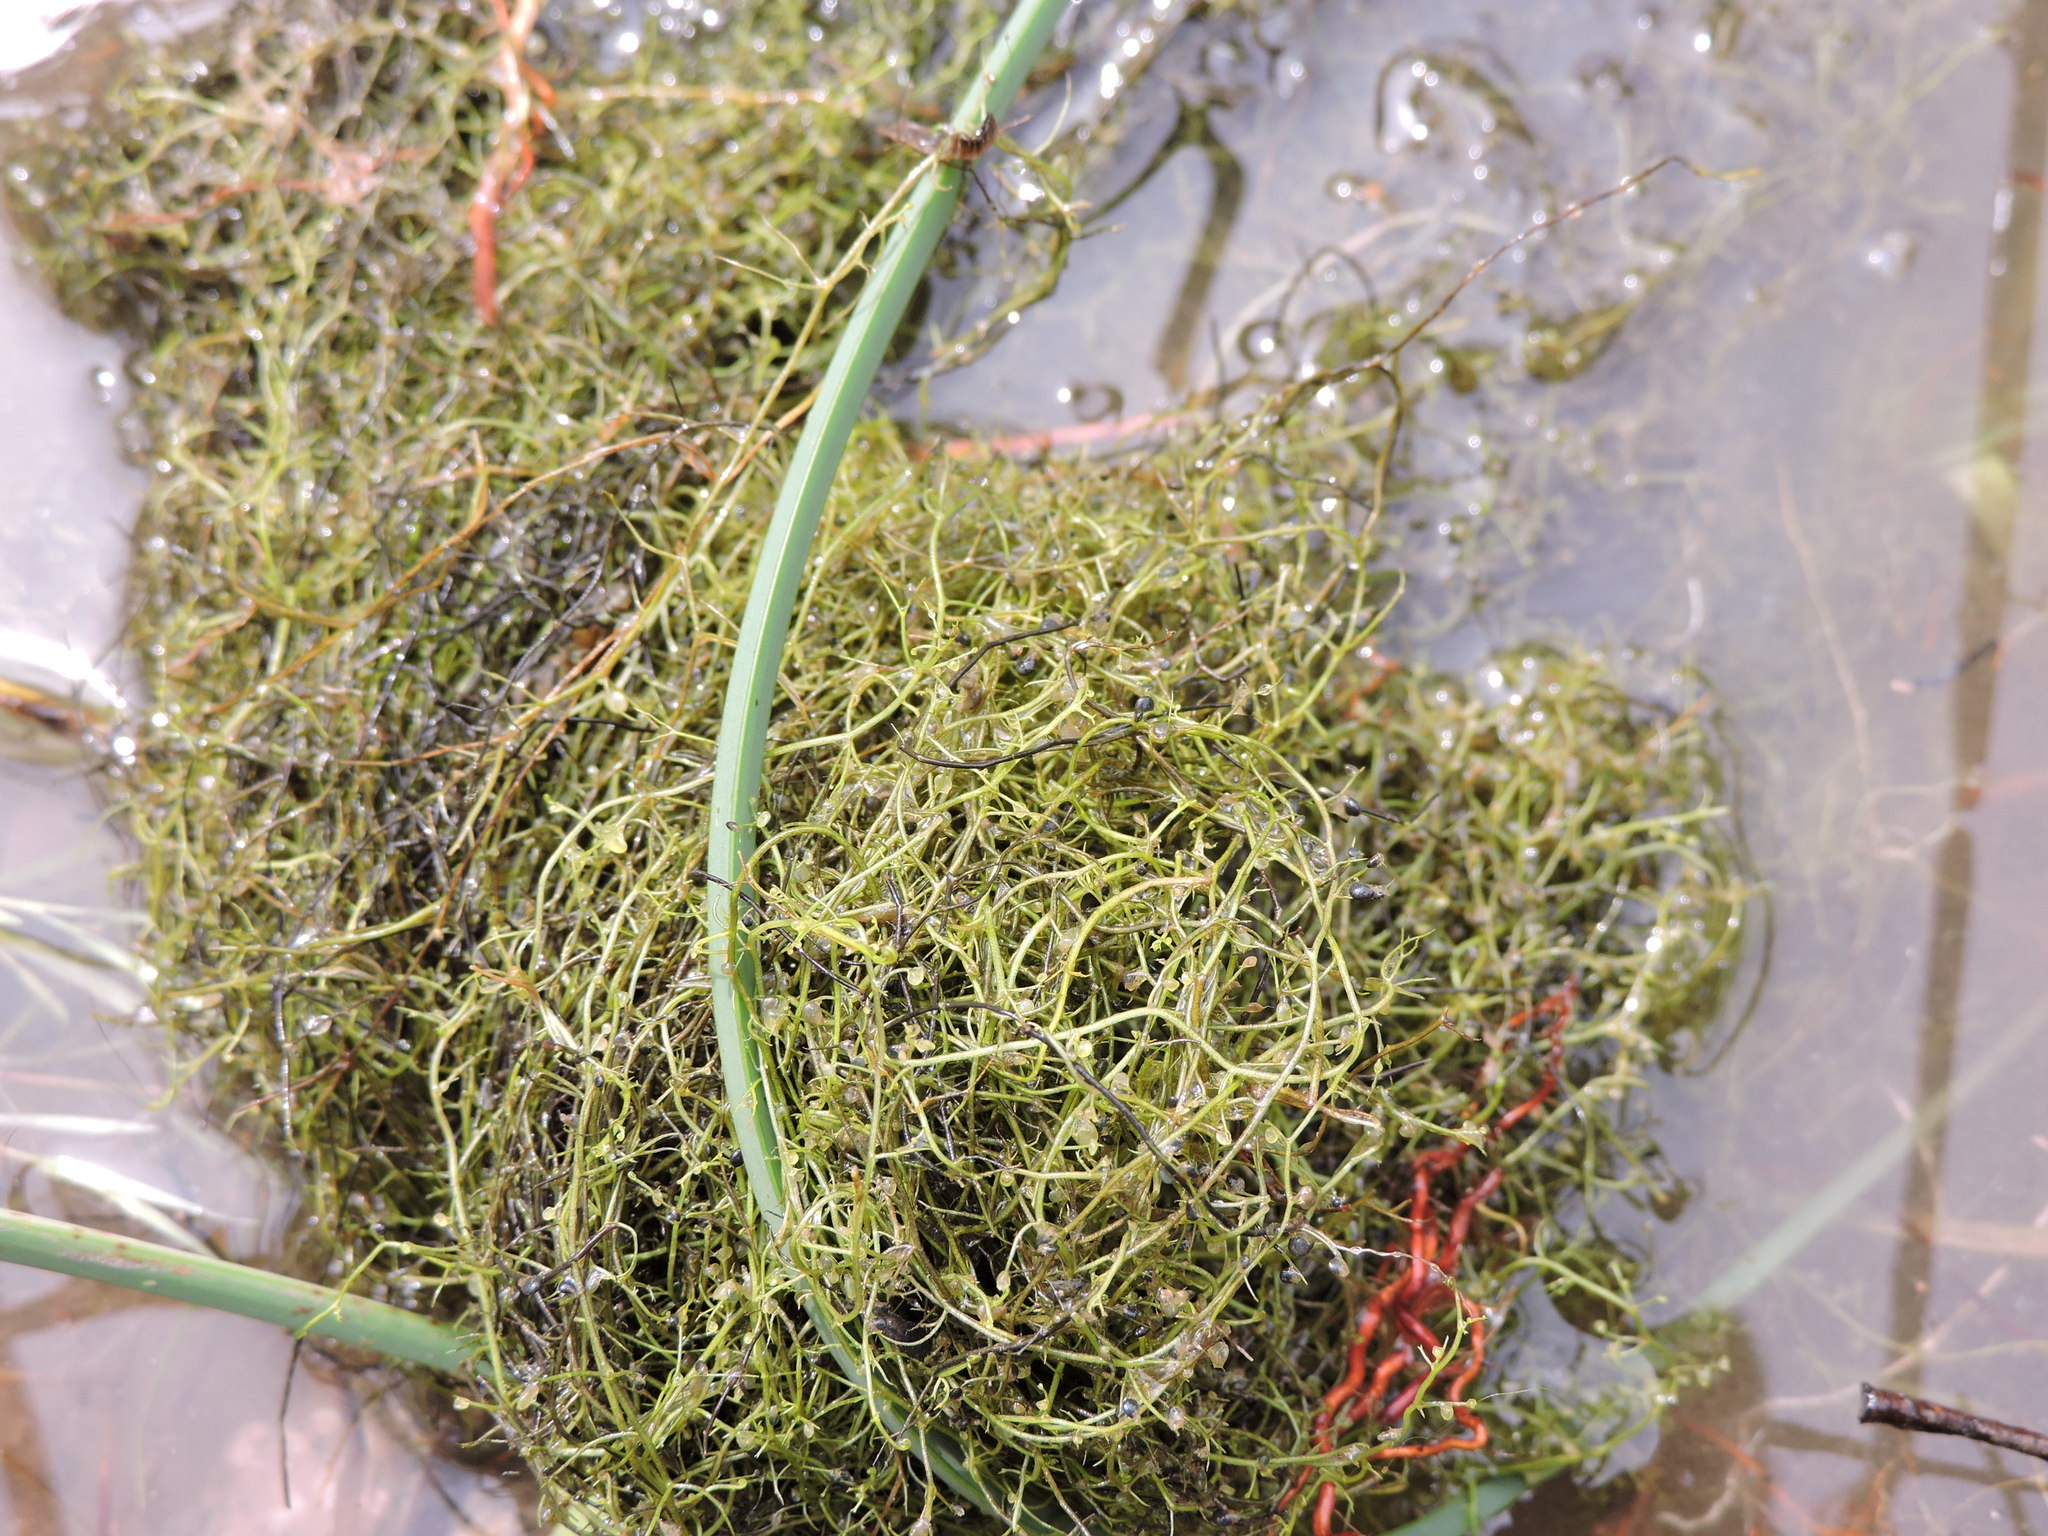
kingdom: Plantae
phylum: Tracheophyta
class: Magnoliopsida
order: Lamiales
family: Lentibulariaceae
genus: Utricularia
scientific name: Utricularia gibba
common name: Humped bladderwort
